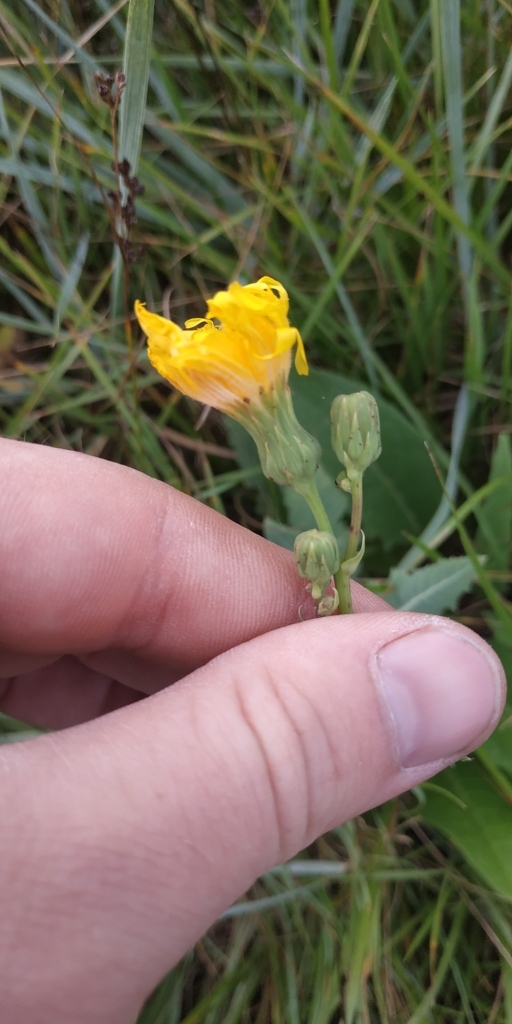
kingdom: Plantae
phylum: Tracheophyta
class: Magnoliopsida
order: Asterales
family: Asteraceae
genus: Sonchus
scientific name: Sonchus arvensis
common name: Perennial sow-thistle
